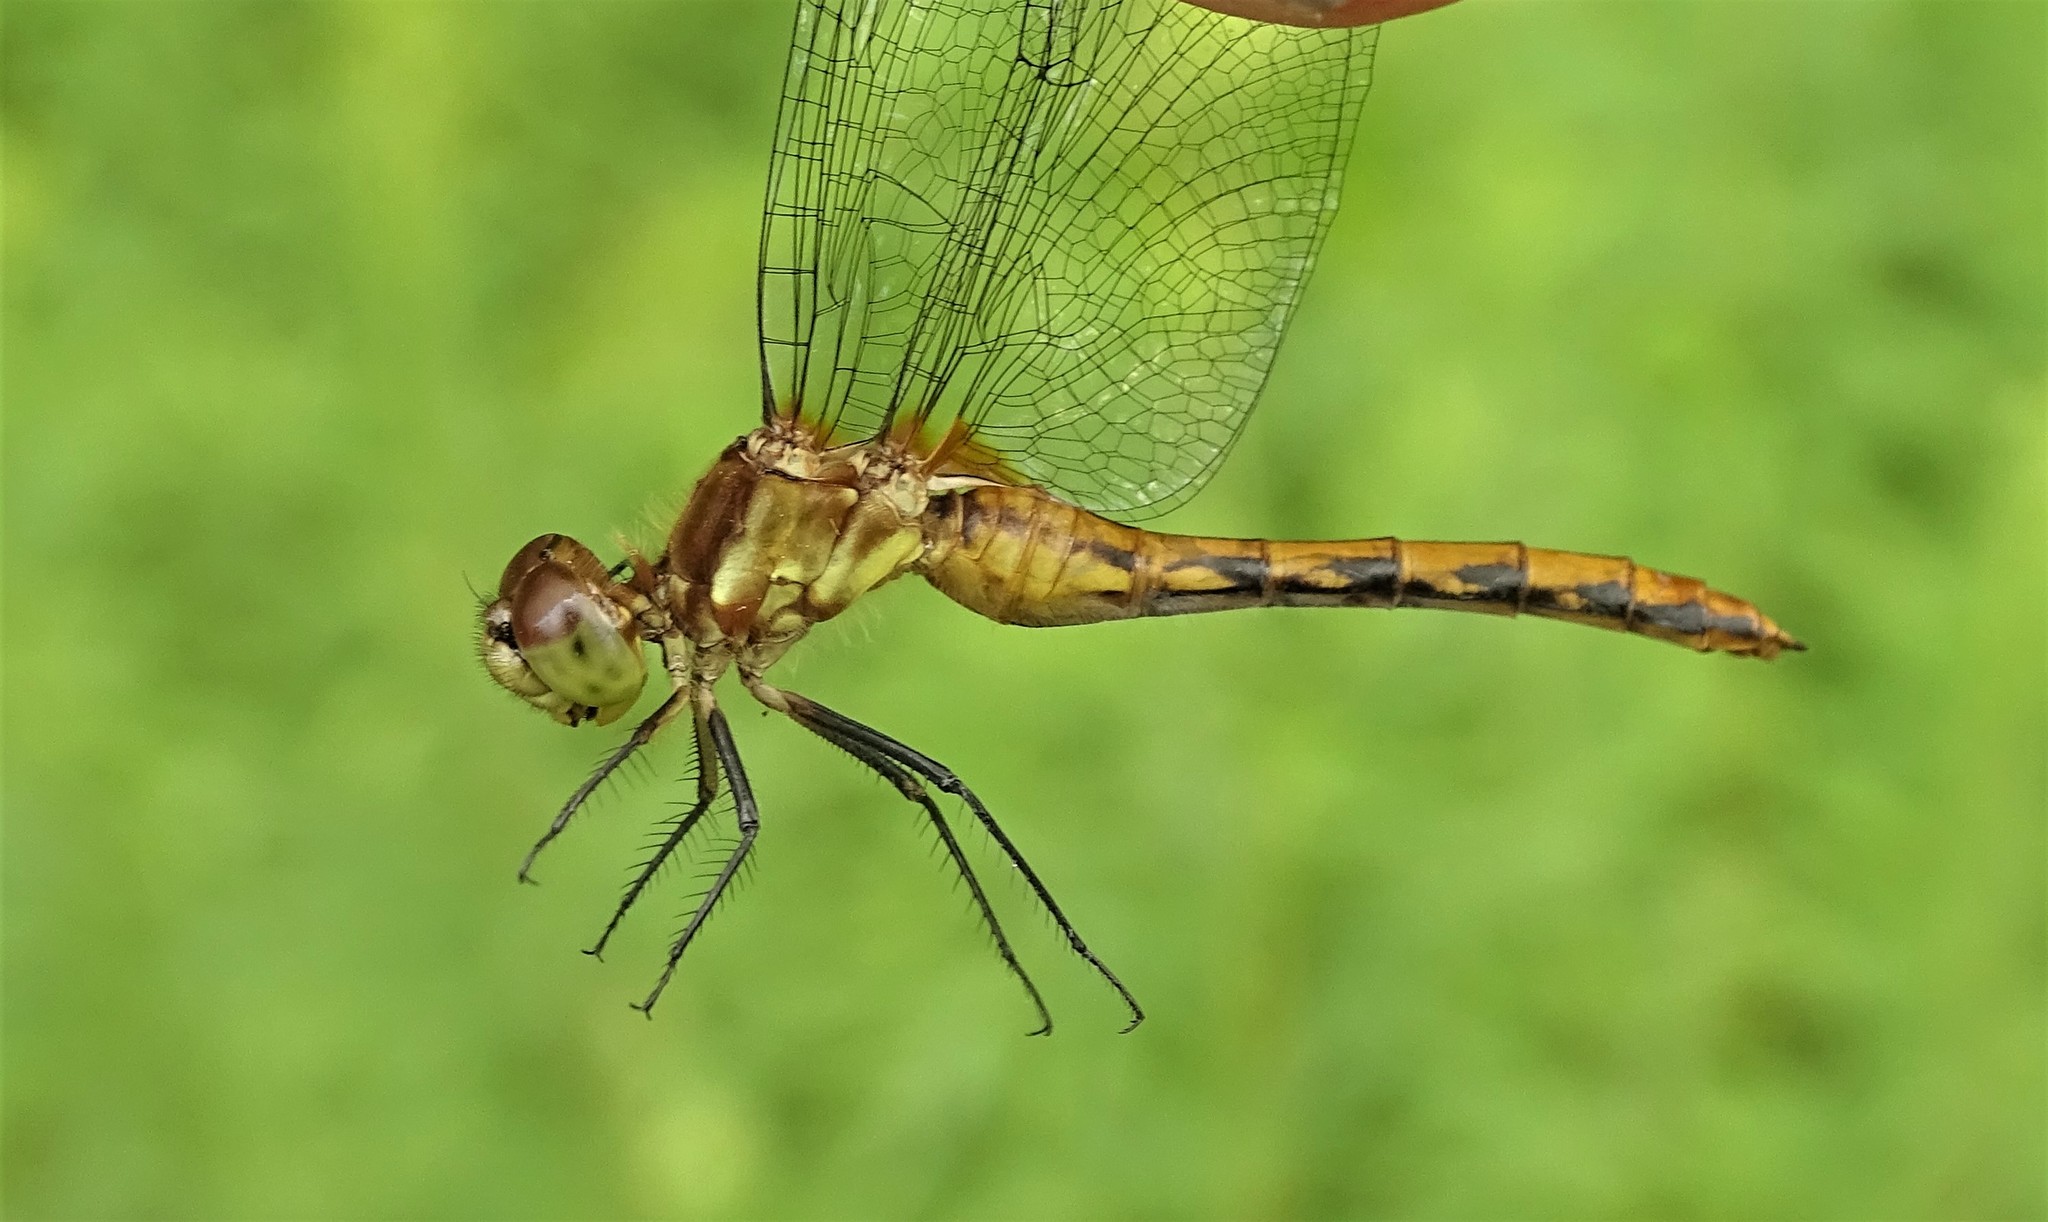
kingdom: Animalia
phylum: Arthropoda
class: Insecta
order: Odonata
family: Libellulidae
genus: Sympetrum
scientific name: Sympetrum obtrusum
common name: White-faced meadowhawk
